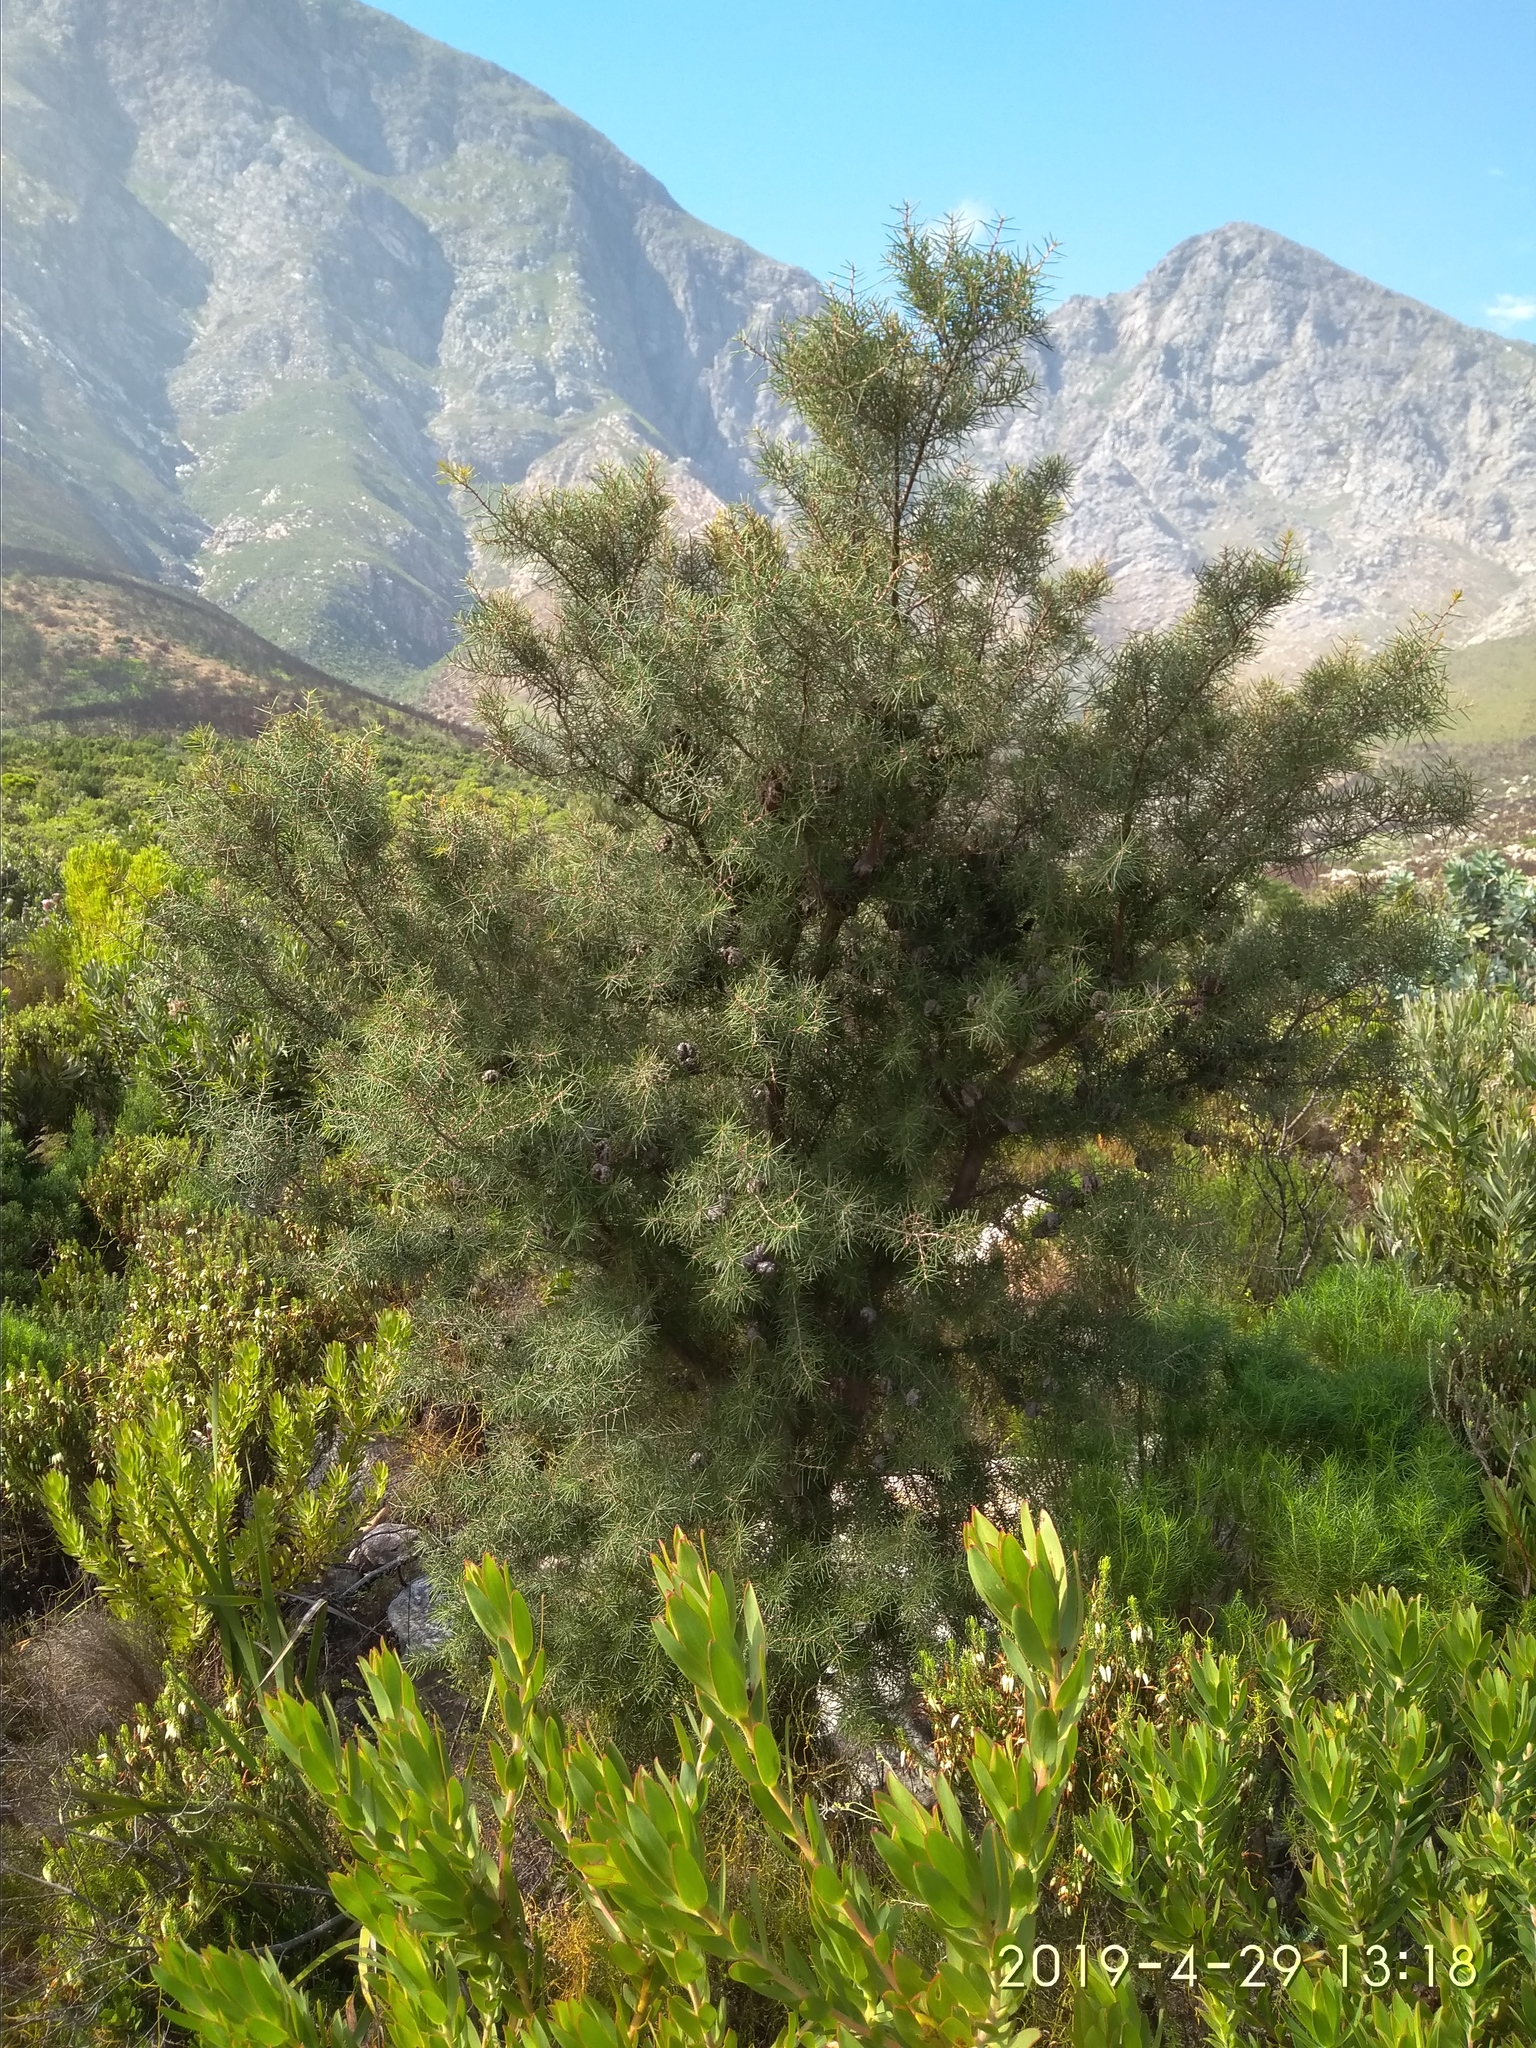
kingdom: Plantae
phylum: Tracheophyta
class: Magnoliopsida
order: Proteales
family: Proteaceae
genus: Hakea
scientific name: Hakea sericea
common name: Needle bush
